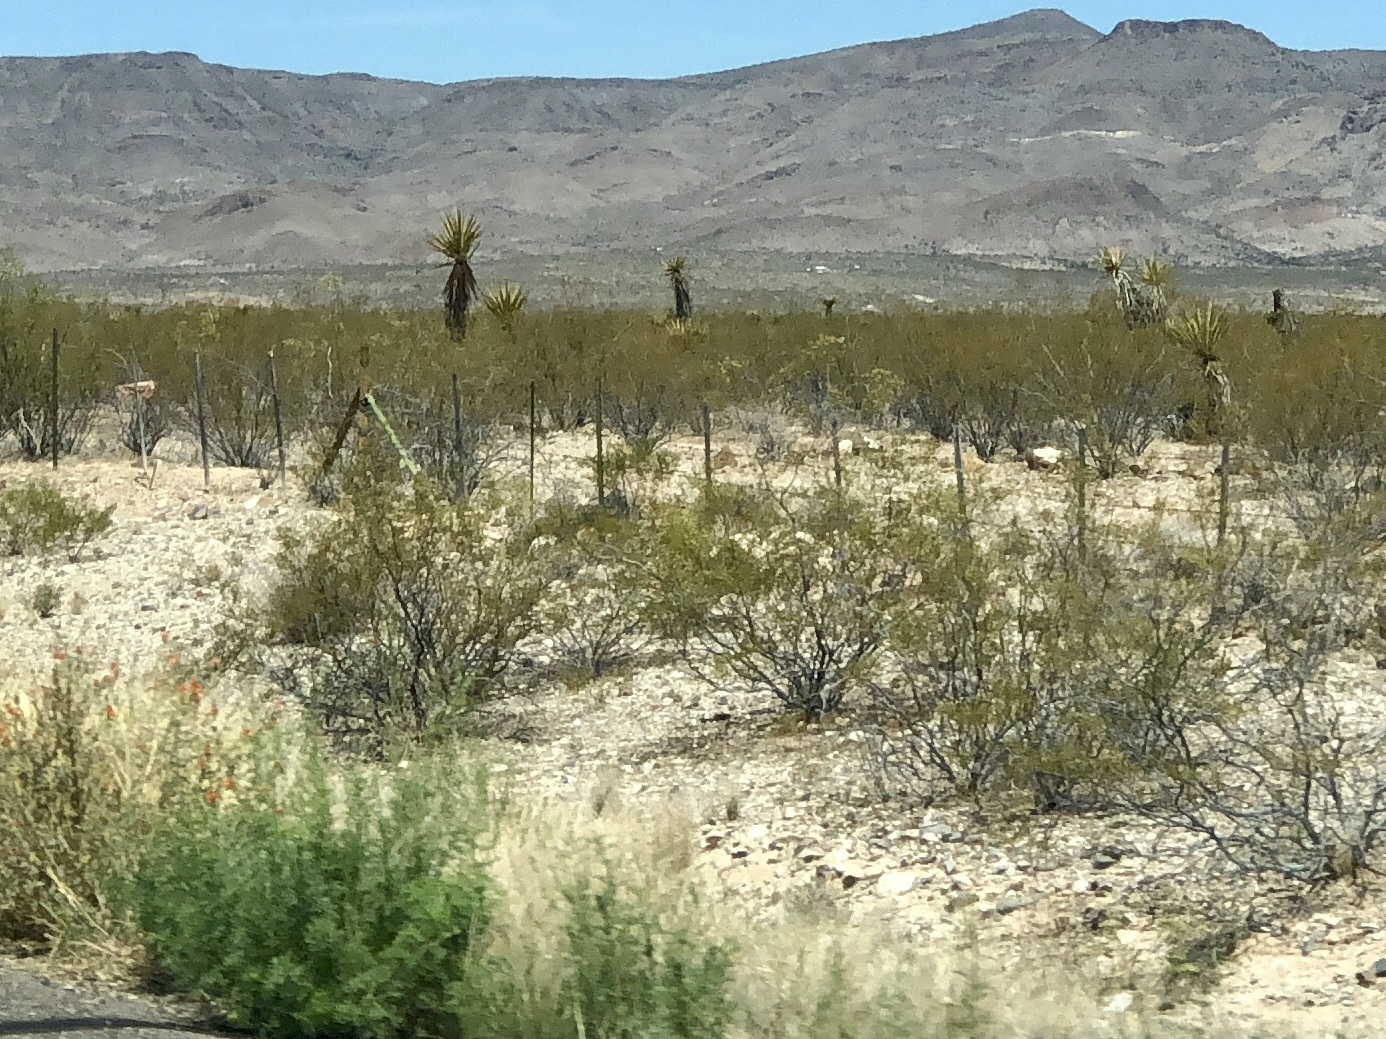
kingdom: Plantae
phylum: Tracheophyta
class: Magnoliopsida
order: Zygophyllales
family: Zygophyllaceae
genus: Larrea
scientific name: Larrea tridentata
